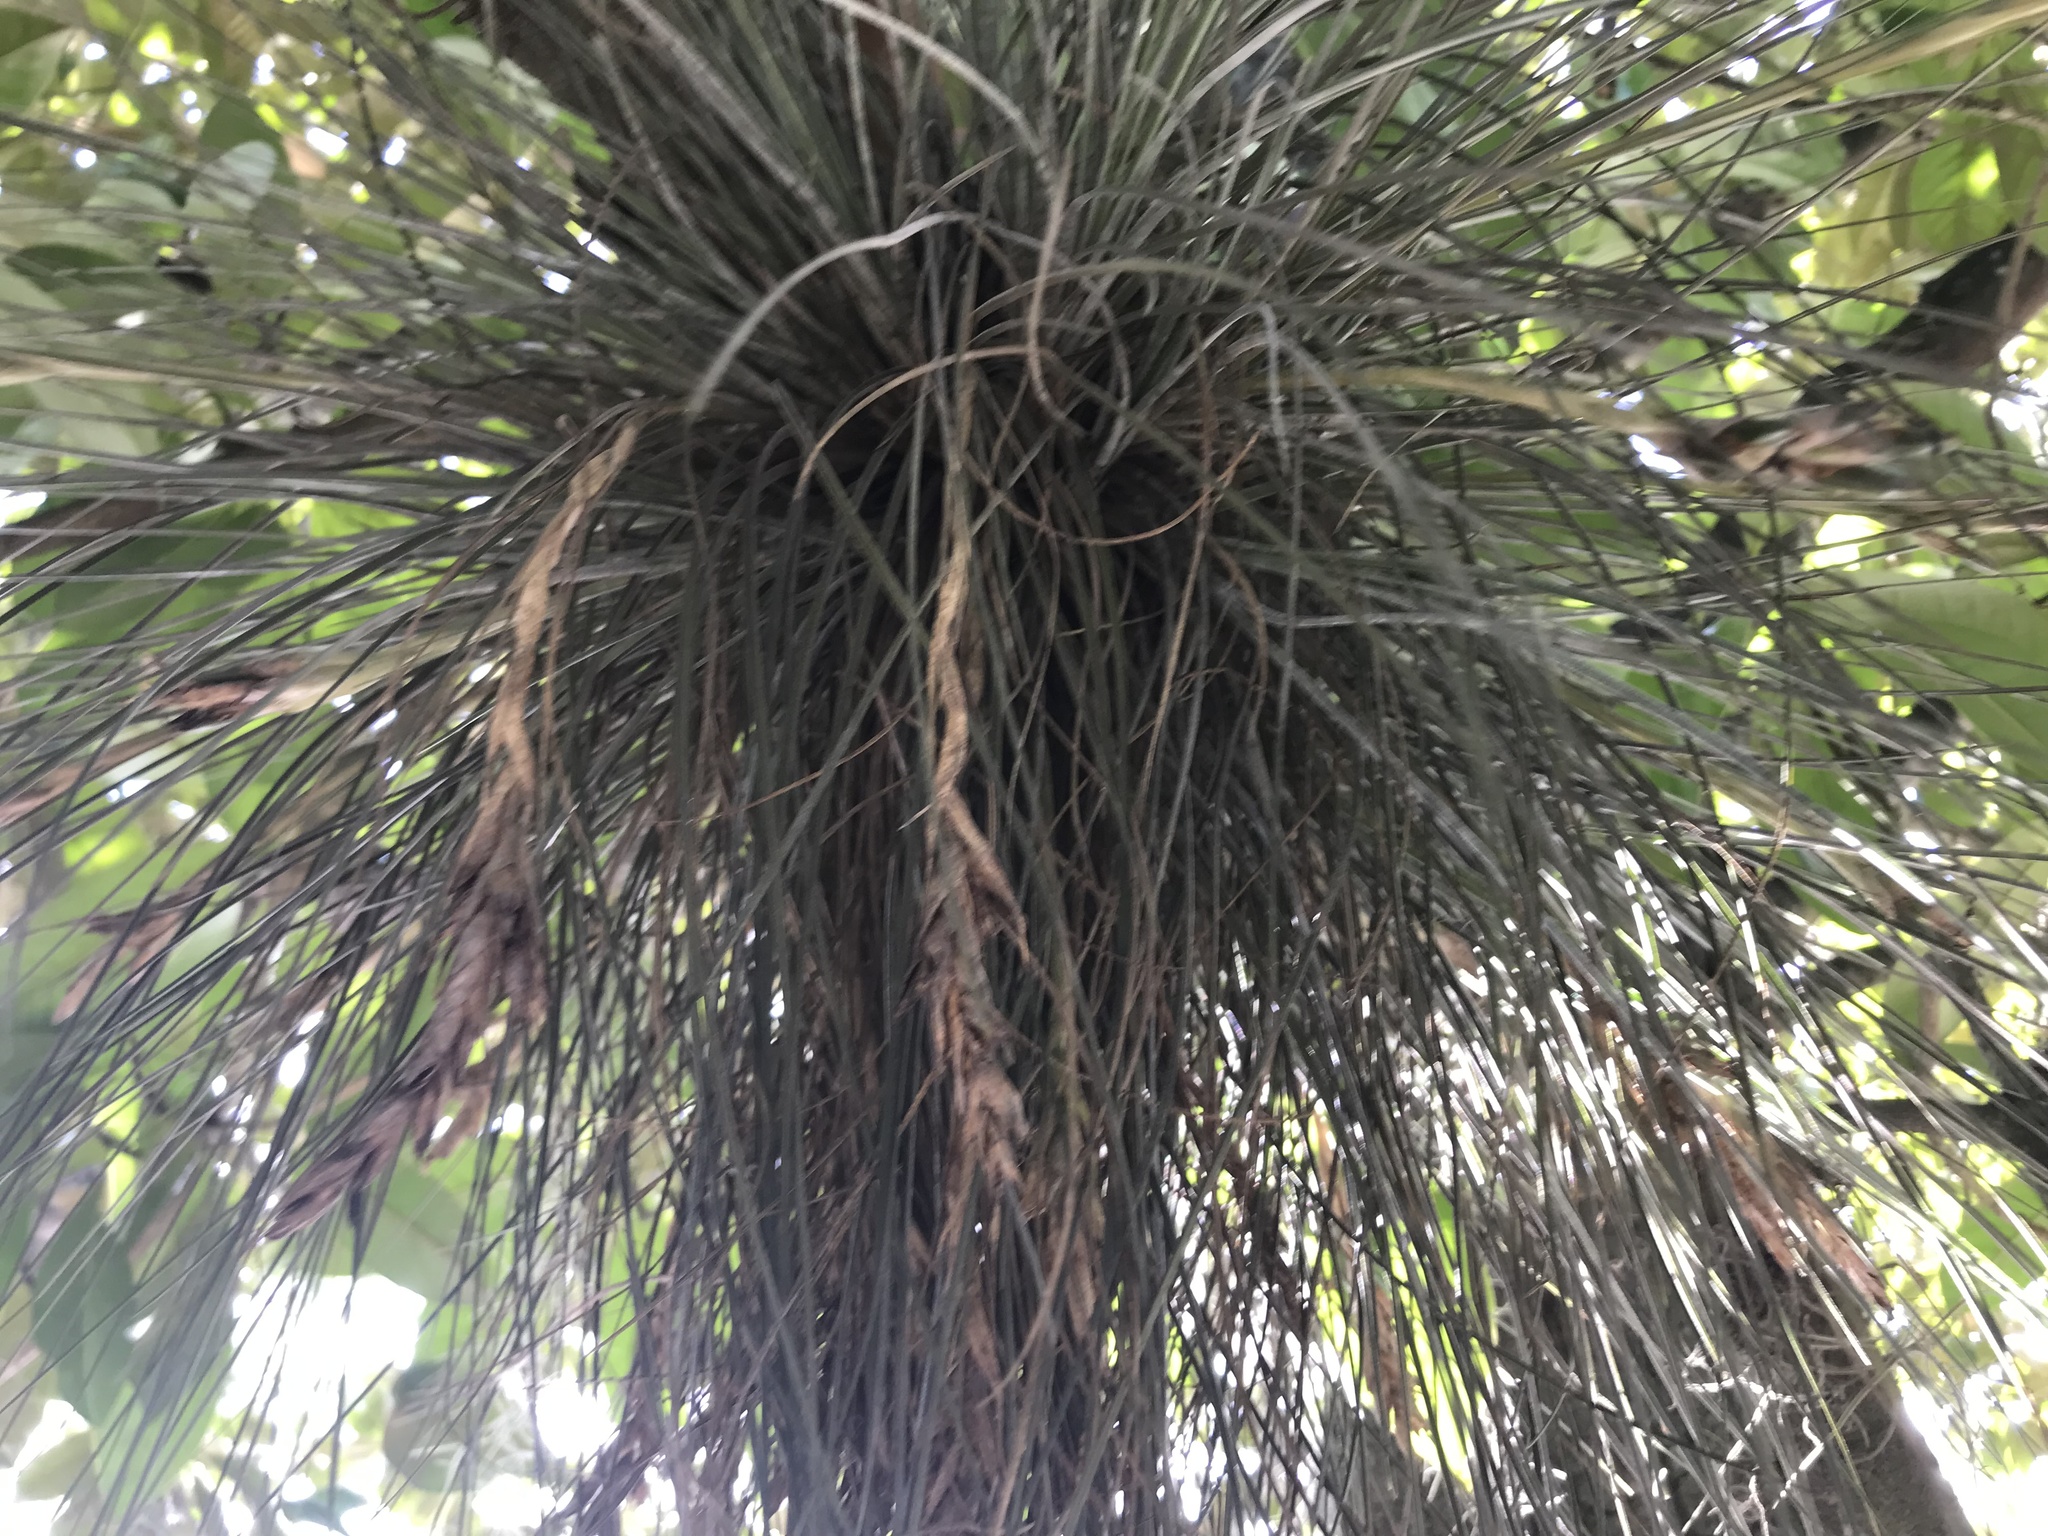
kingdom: Plantae
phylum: Tracheophyta
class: Liliopsida
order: Poales
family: Bromeliaceae
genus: Tillandsia
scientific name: Tillandsia bartramii
